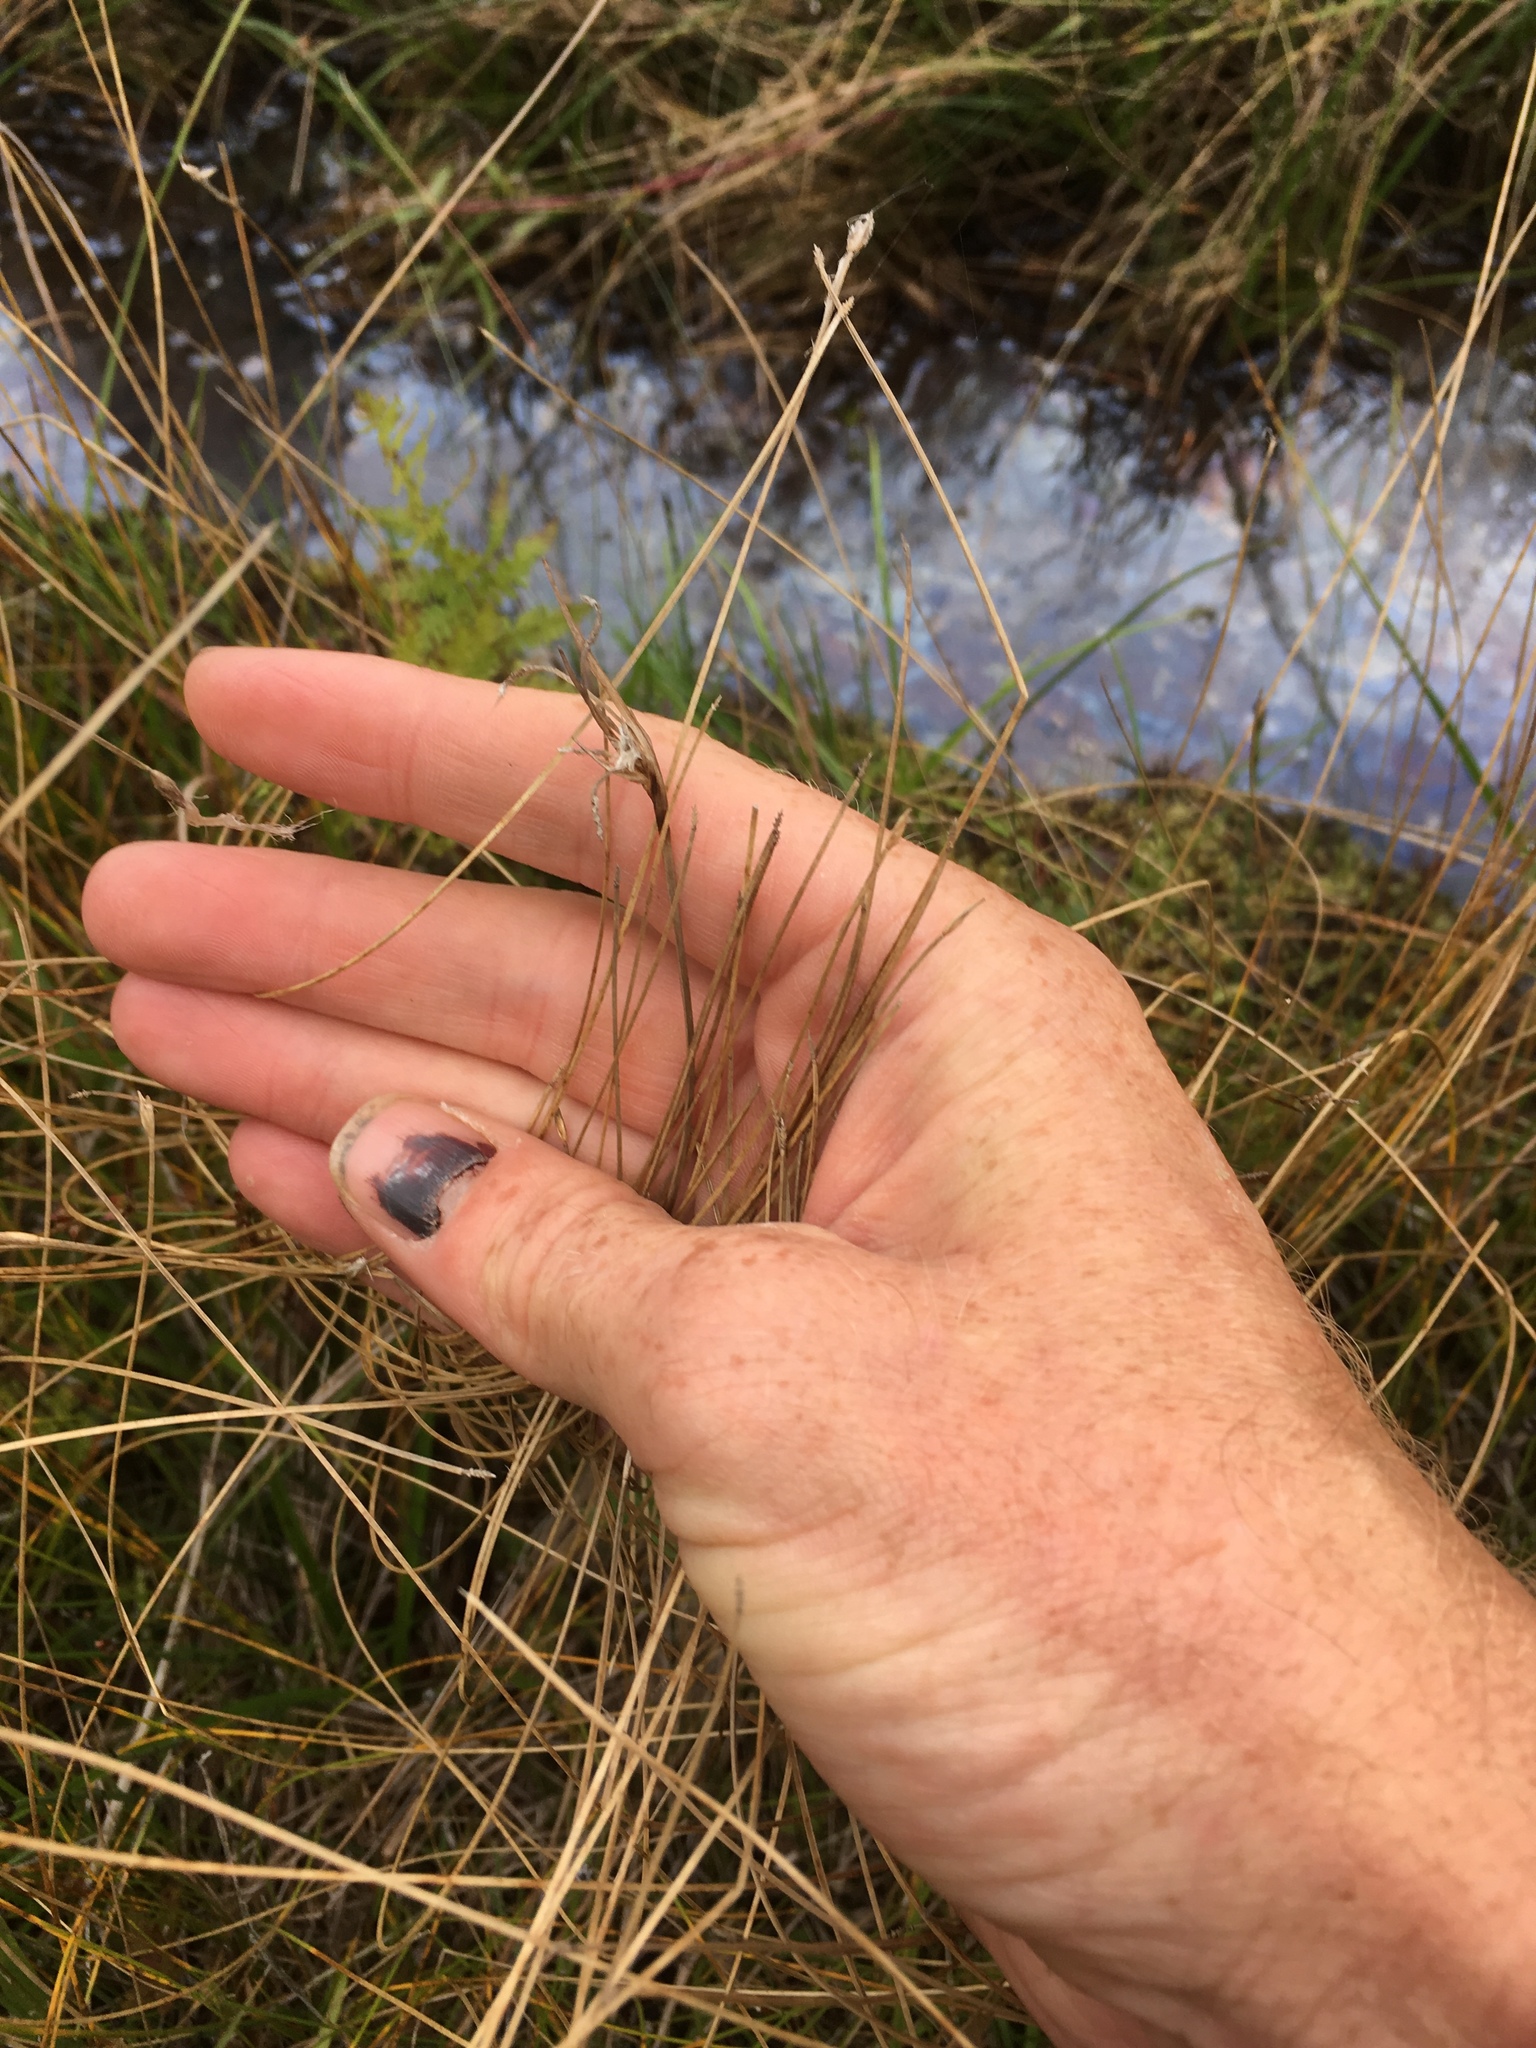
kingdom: Plantae
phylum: Tracheophyta
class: Liliopsida
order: Poales
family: Cyperaceae
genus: Trichophorum
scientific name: Trichophorum alpinum
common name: Alpine bulrush
